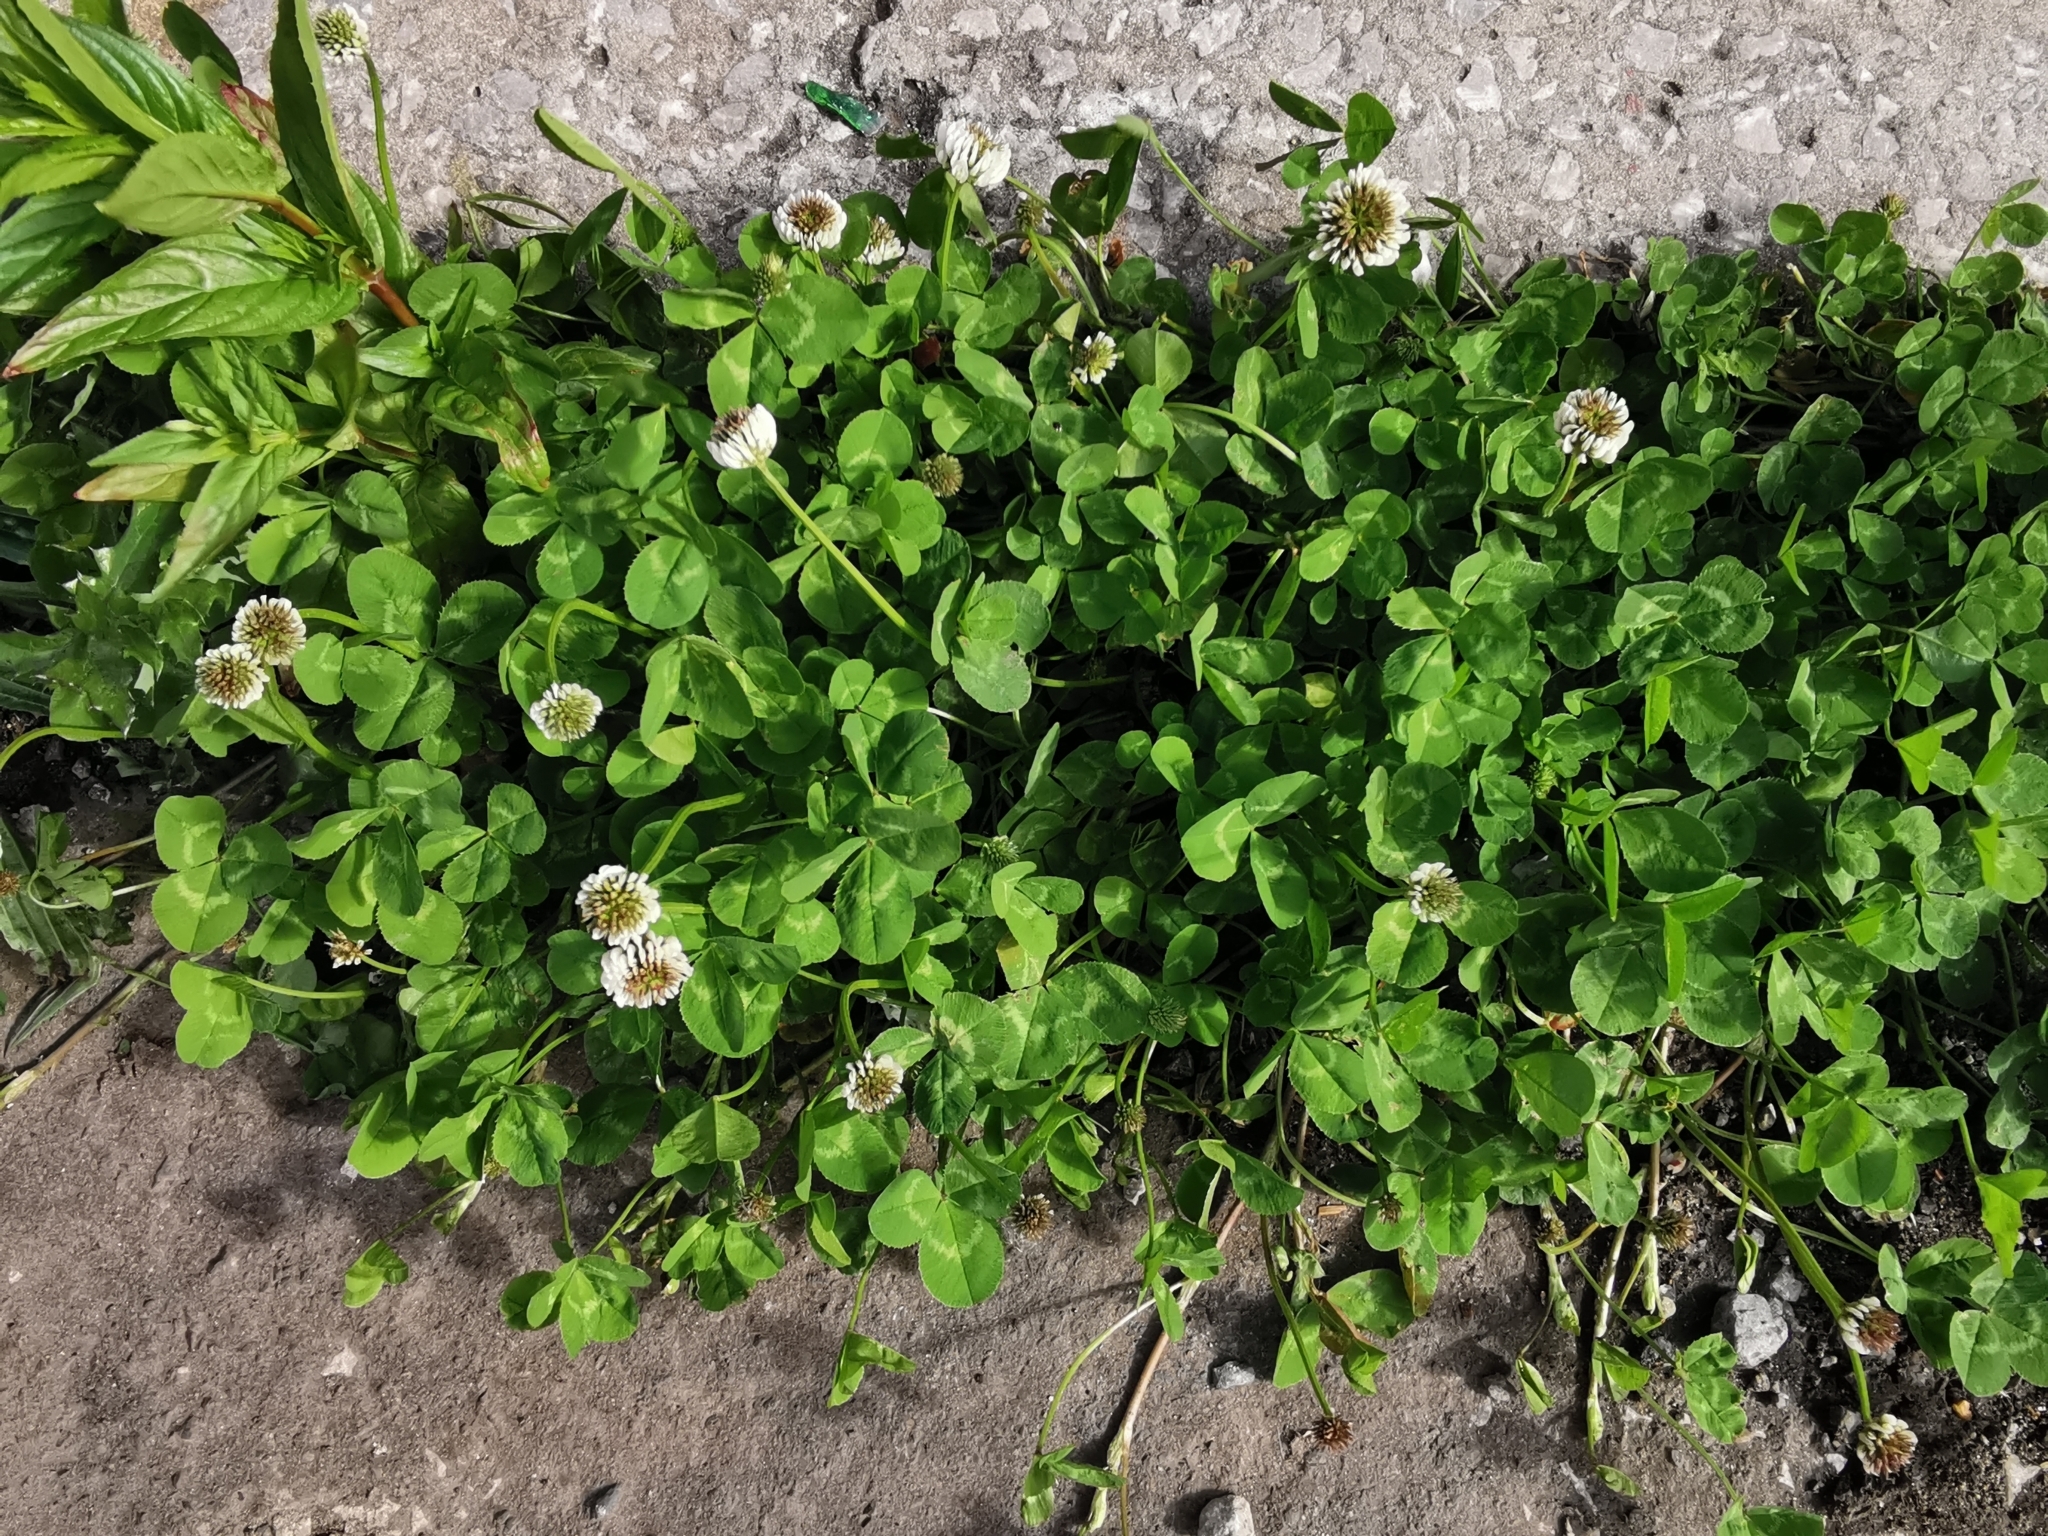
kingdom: Plantae
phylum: Tracheophyta
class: Magnoliopsida
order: Fabales
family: Fabaceae
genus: Trifolium
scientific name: Trifolium repens
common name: White clover
